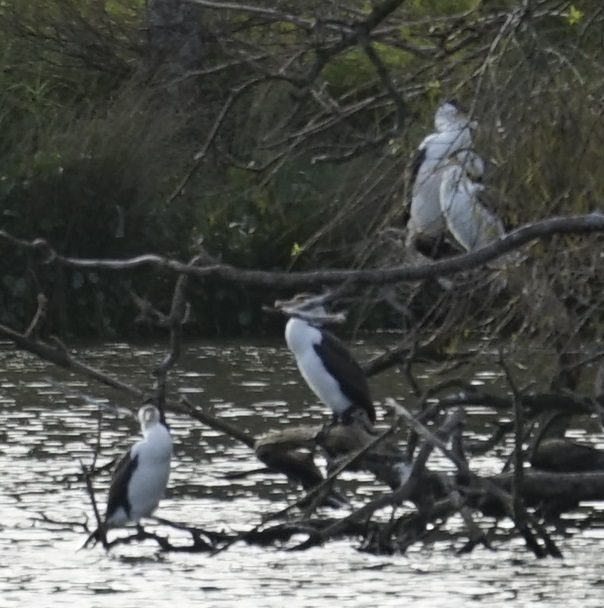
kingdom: Animalia
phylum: Chordata
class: Aves
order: Suliformes
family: Phalacrocoracidae
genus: Phalacrocorax
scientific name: Phalacrocorax varius
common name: Pied cormorant
